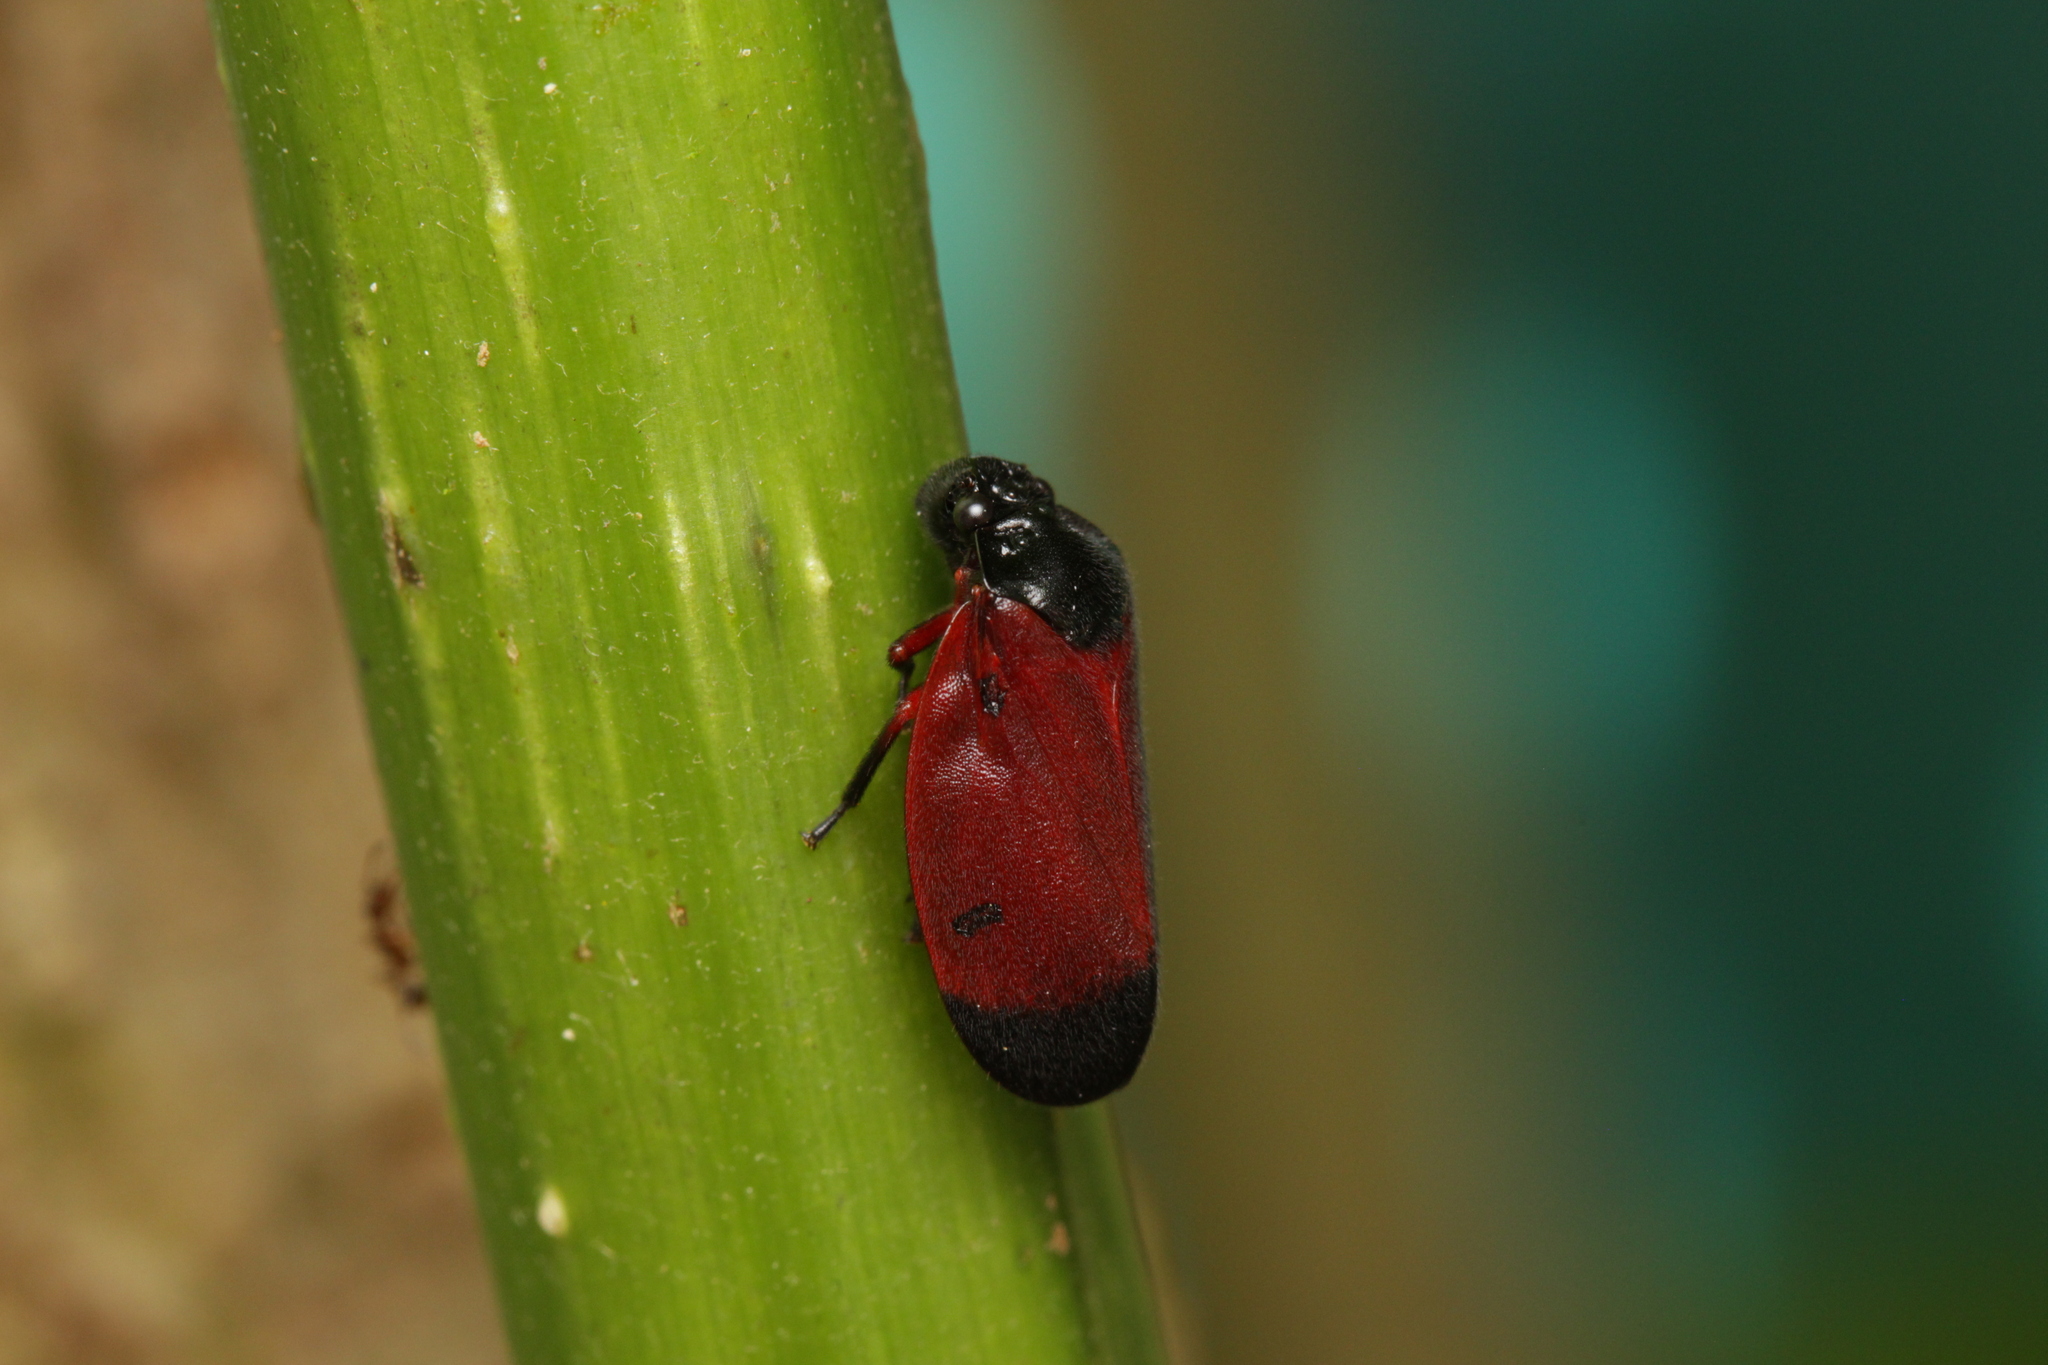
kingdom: Animalia
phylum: Arthropoda
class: Insecta
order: Hemiptera
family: Cercopidae
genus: Sphenorhina
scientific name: Sphenorhina conspicua
